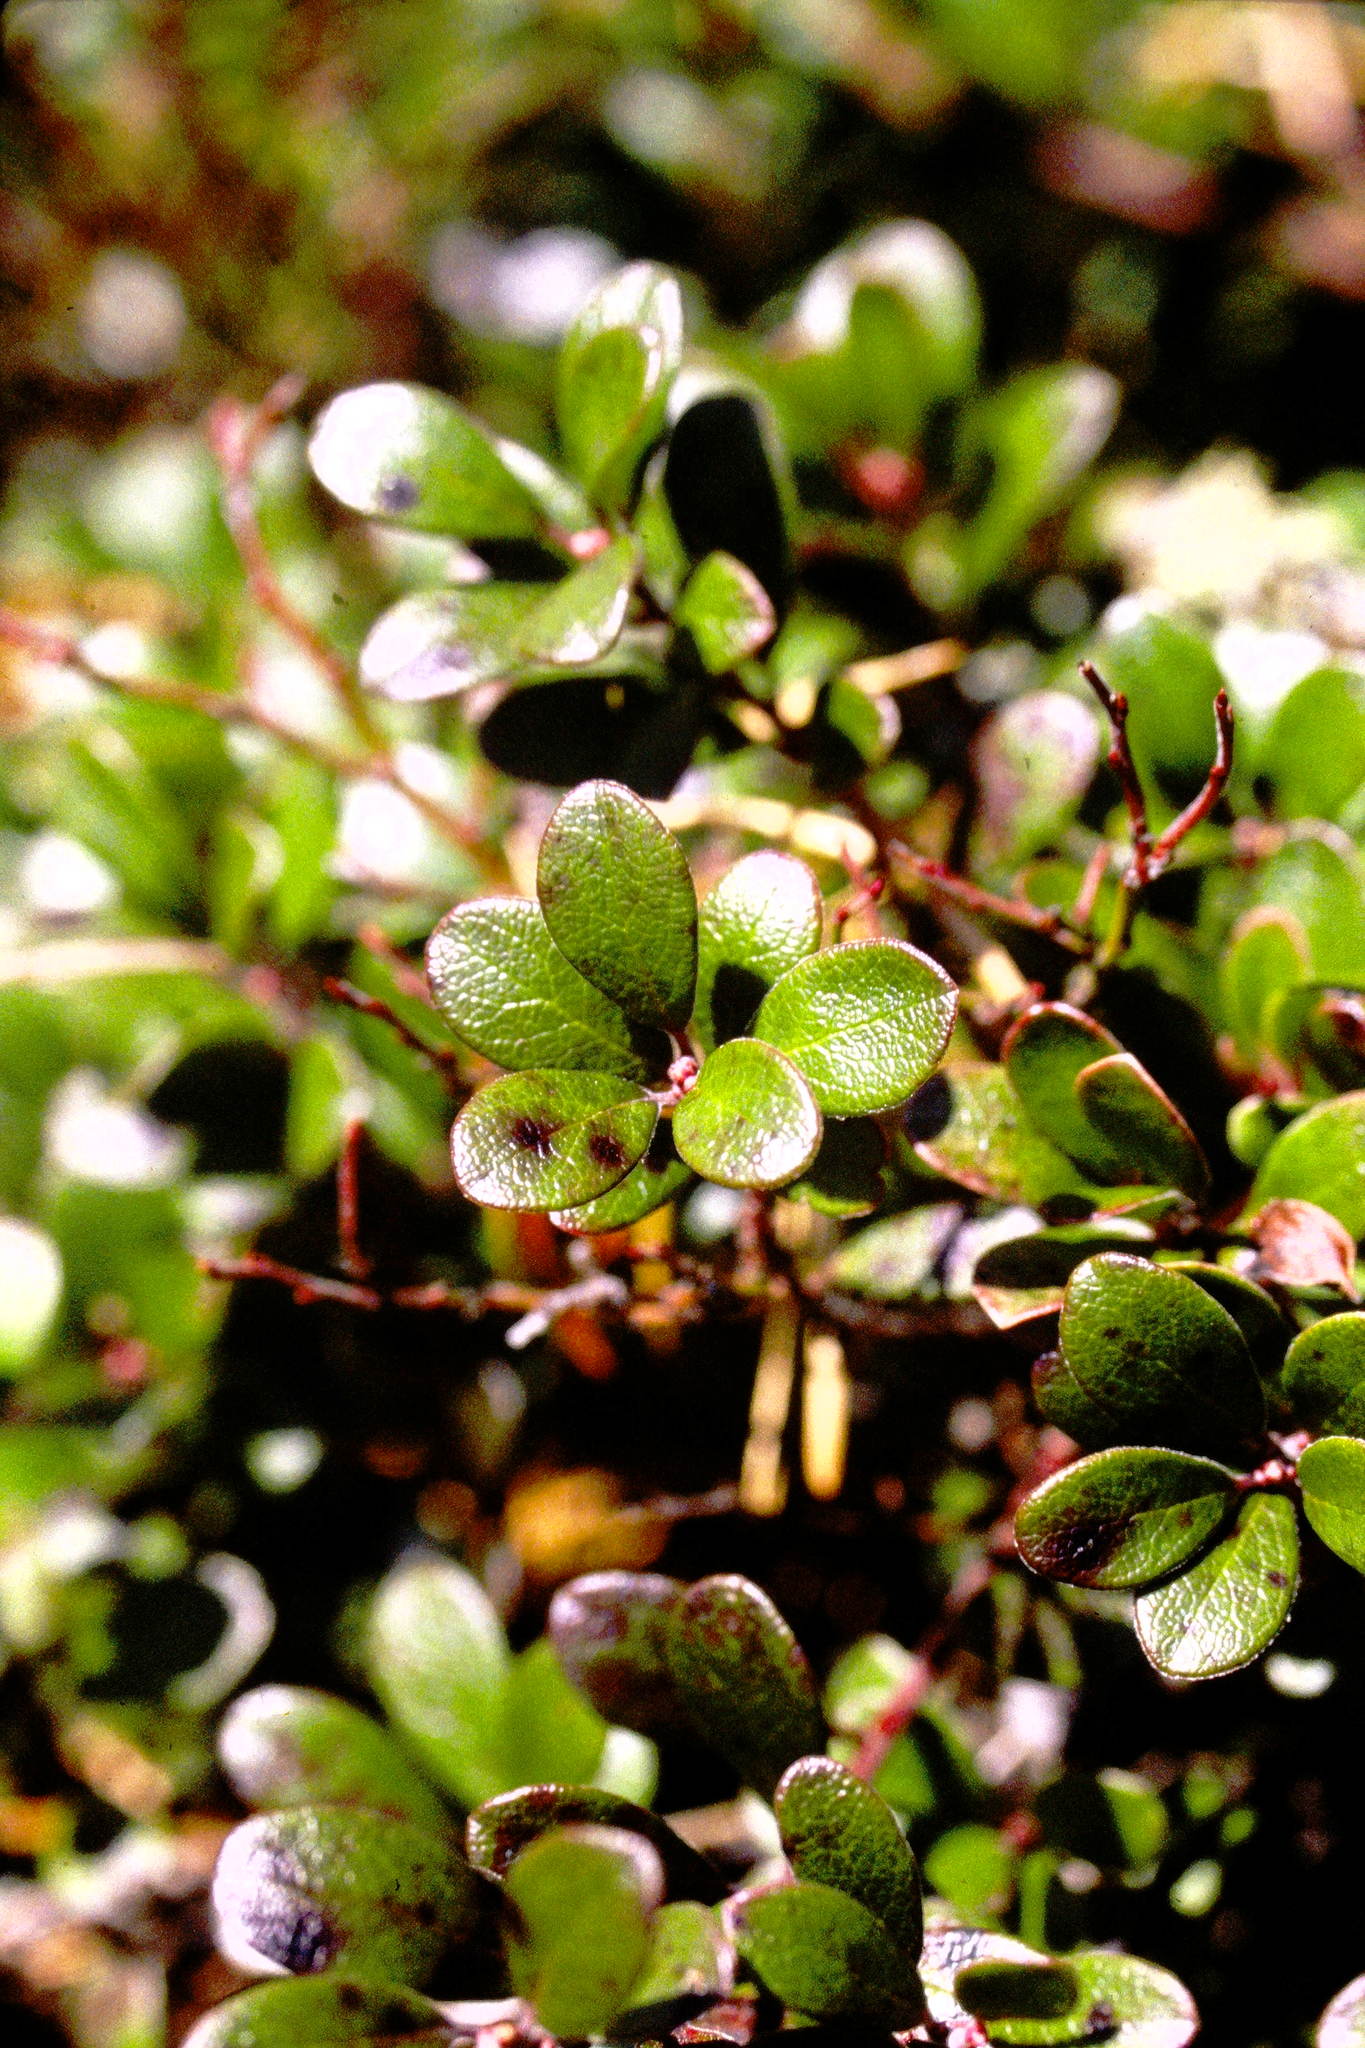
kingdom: Plantae
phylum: Tracheophyta
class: Magnoliopsida
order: Ericales
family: Ericaceae
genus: Arctostaphylos
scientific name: Arctostaphylos uva-ursi
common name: Bearberry
